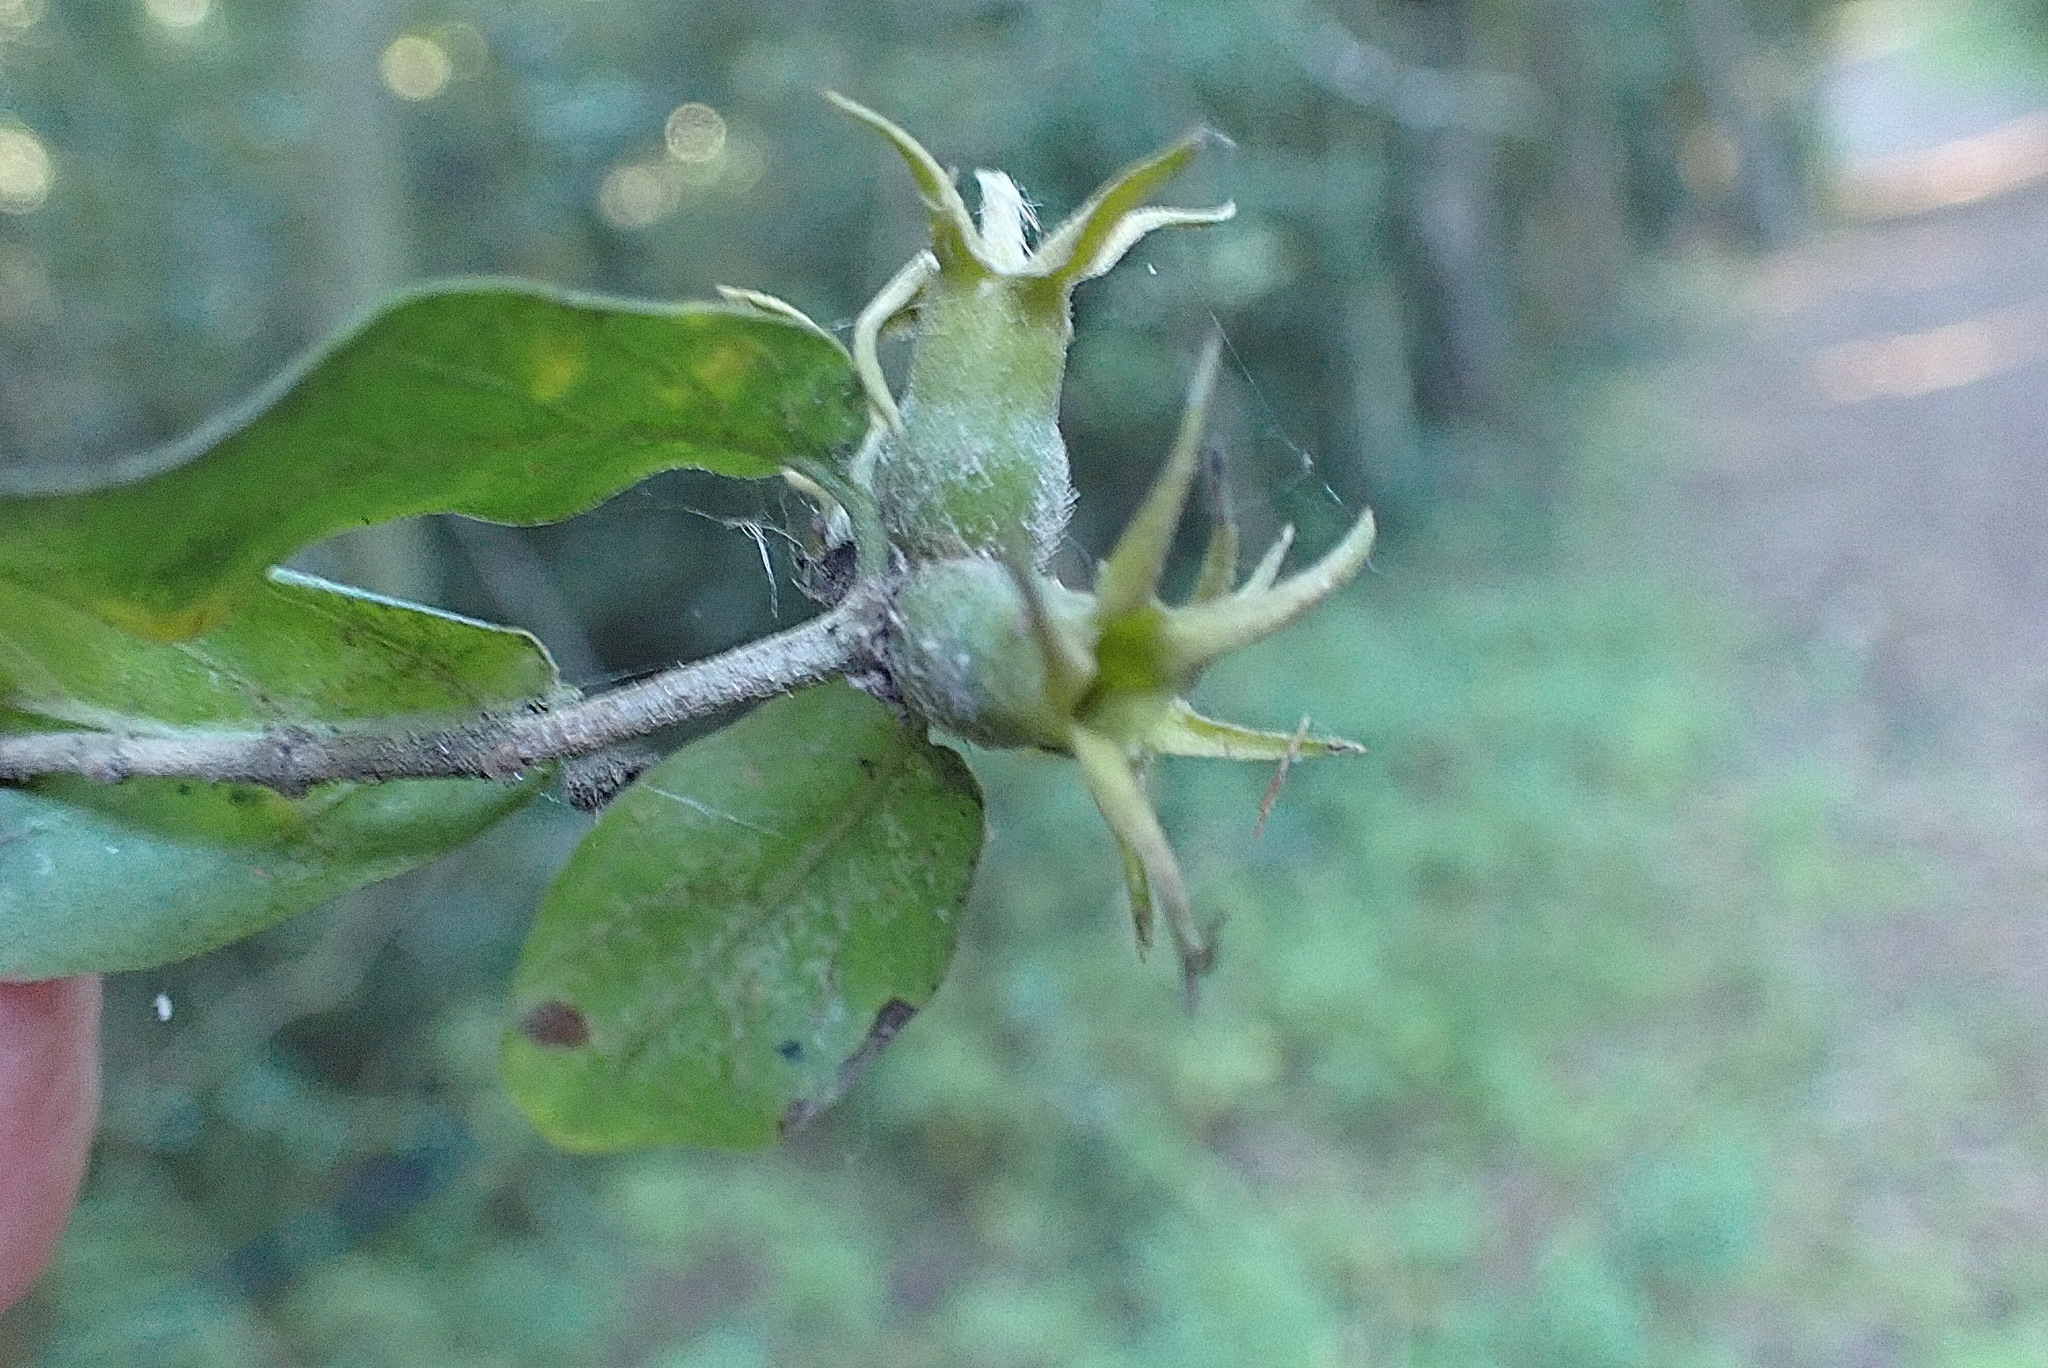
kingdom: Plantae
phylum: Tracheophyta
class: Magnoliopsida
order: Gentianales
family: Rubiaceae
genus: Burchellia
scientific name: Burchellia bubalina
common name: Wild pomegranate
